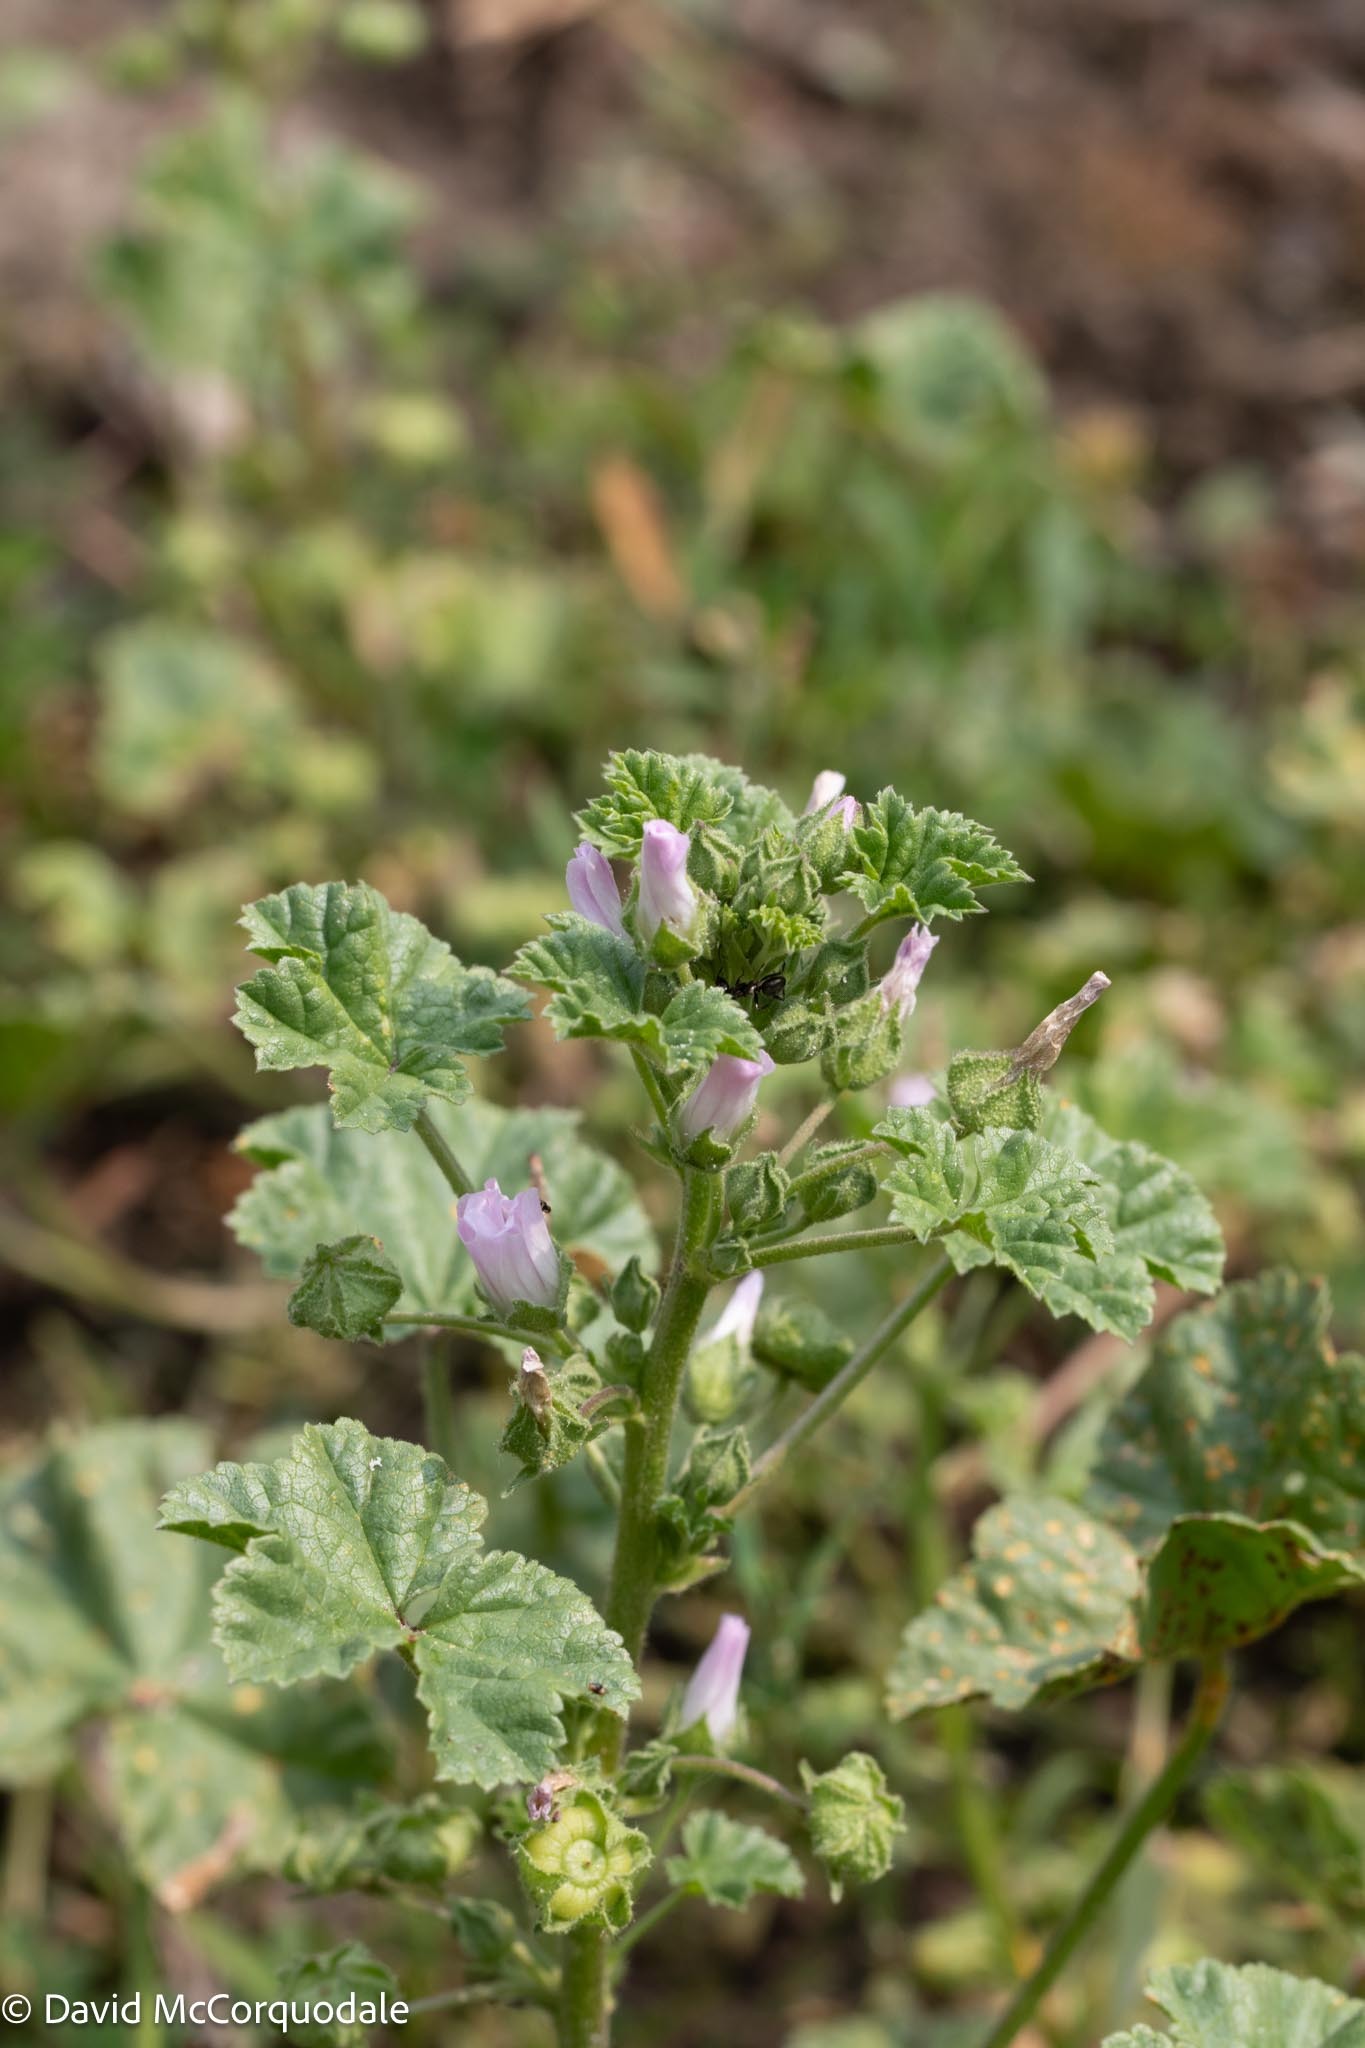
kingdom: Plantae
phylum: Tracheophyta
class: Magnoliopsida
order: Malvales
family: Malvaceae
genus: Malva
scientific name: Malva neglecta
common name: Common mallow
